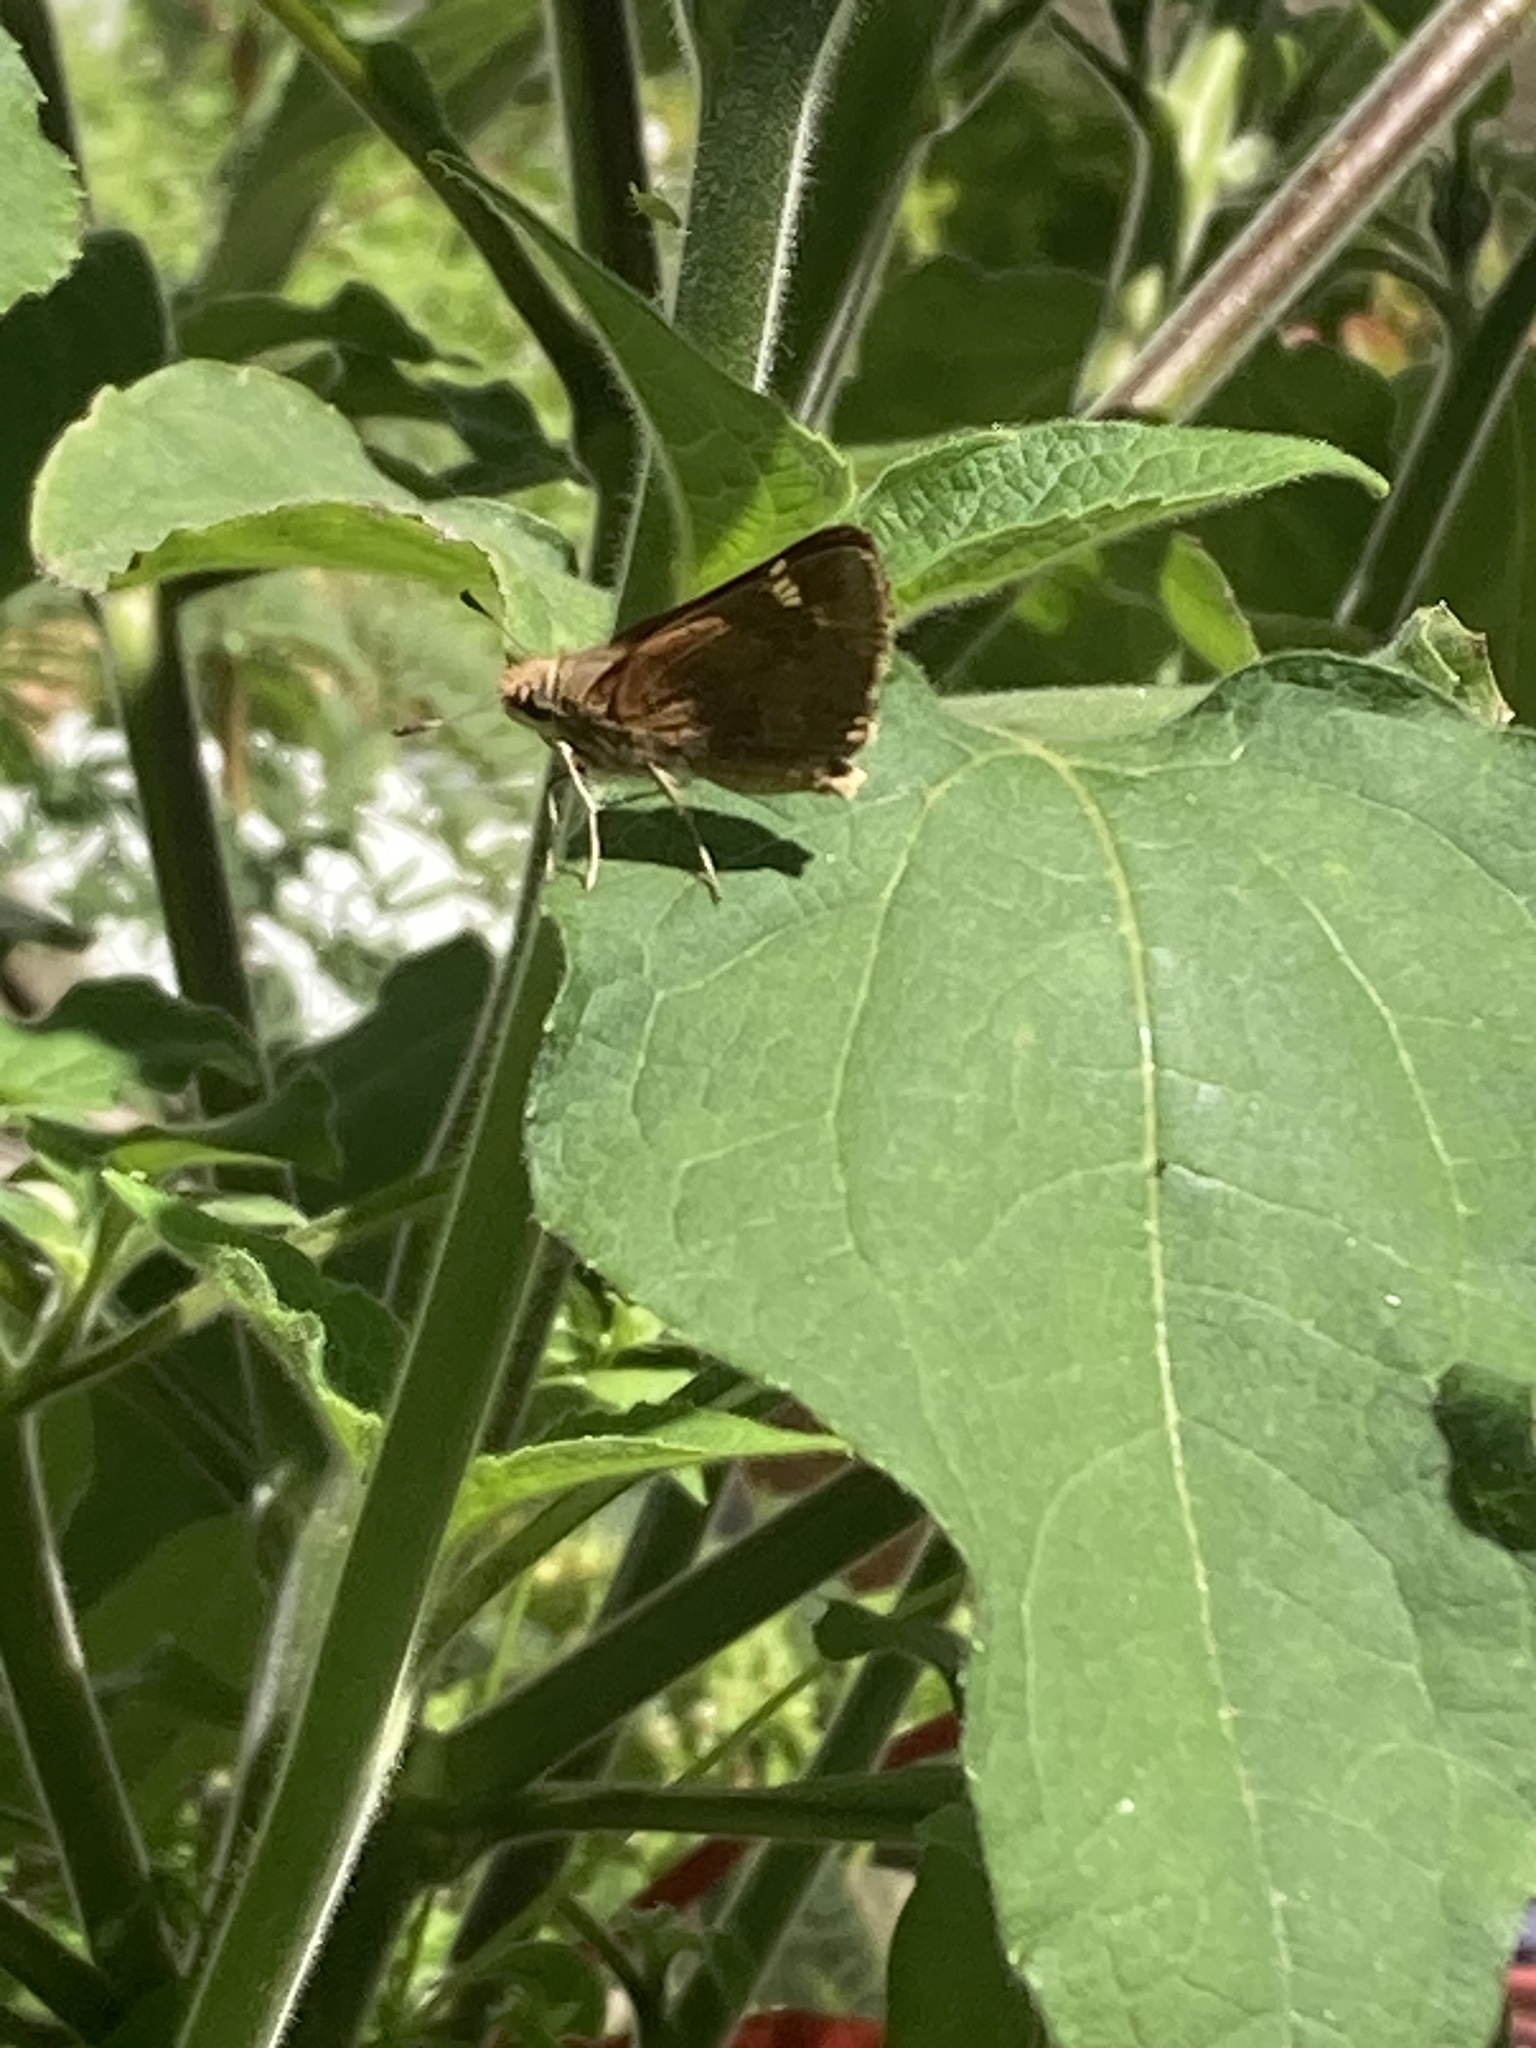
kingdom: Animalia
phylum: Arthropoda
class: Insecta
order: Lepidoptera
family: Hesperiidae
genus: Lon
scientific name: Lon melane
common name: Umber skipper
